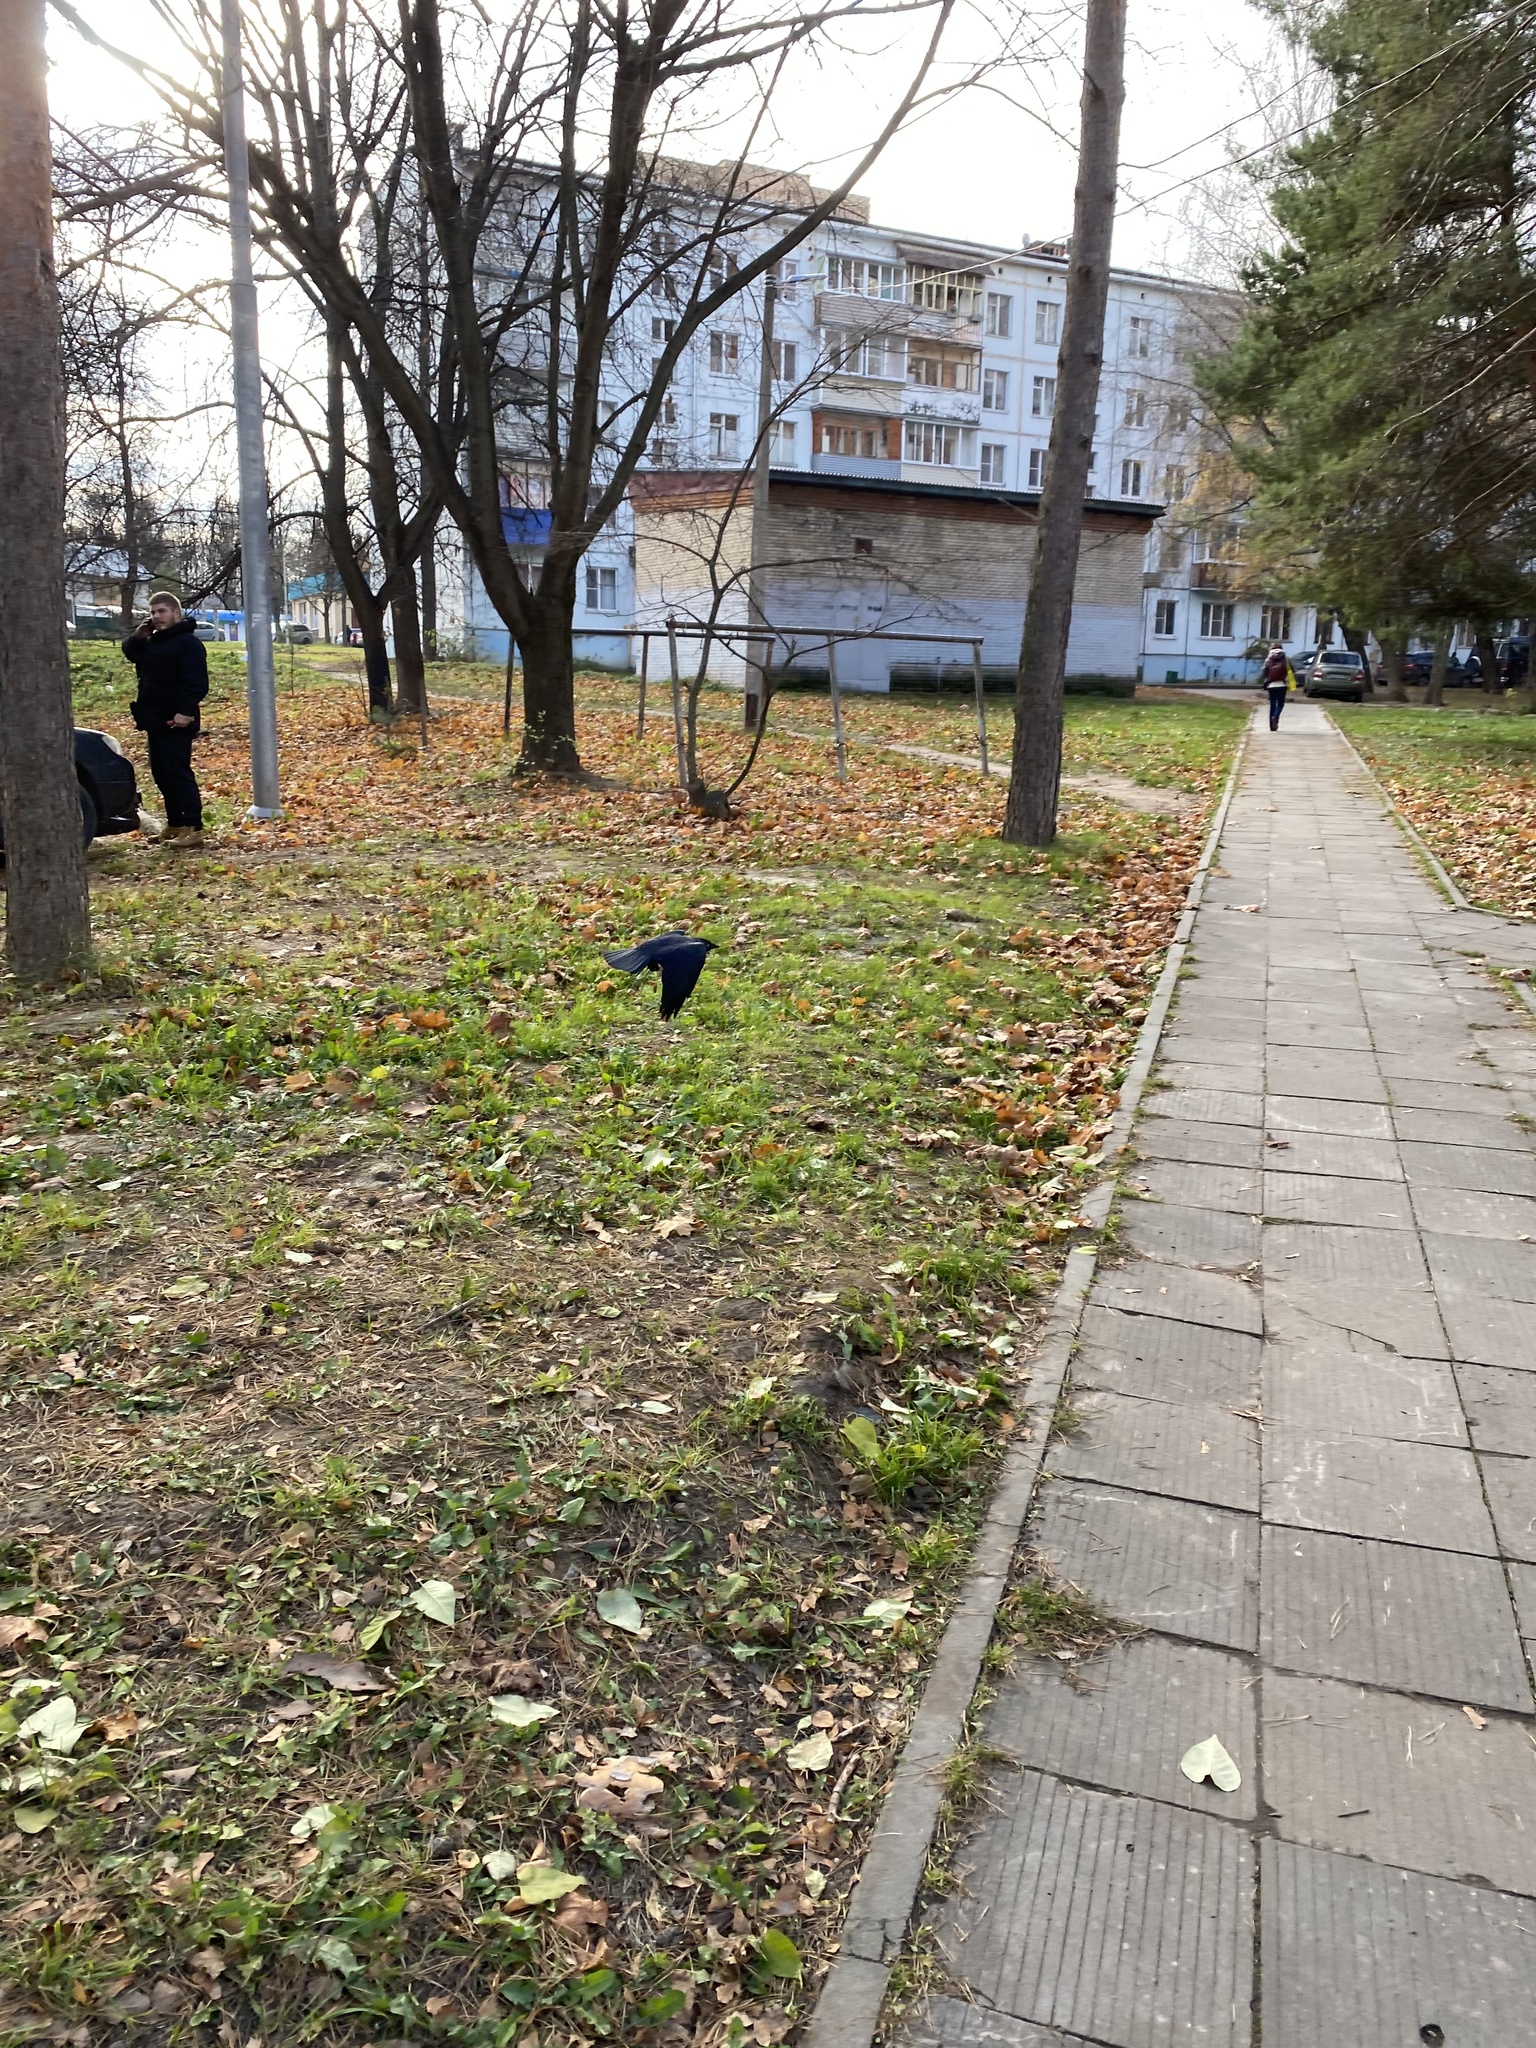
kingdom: Animalia
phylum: Chordata
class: Aves
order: Passeriformes
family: Corvidae
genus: Coloeus
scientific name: Coloeus monedula
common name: Western jackdaw
